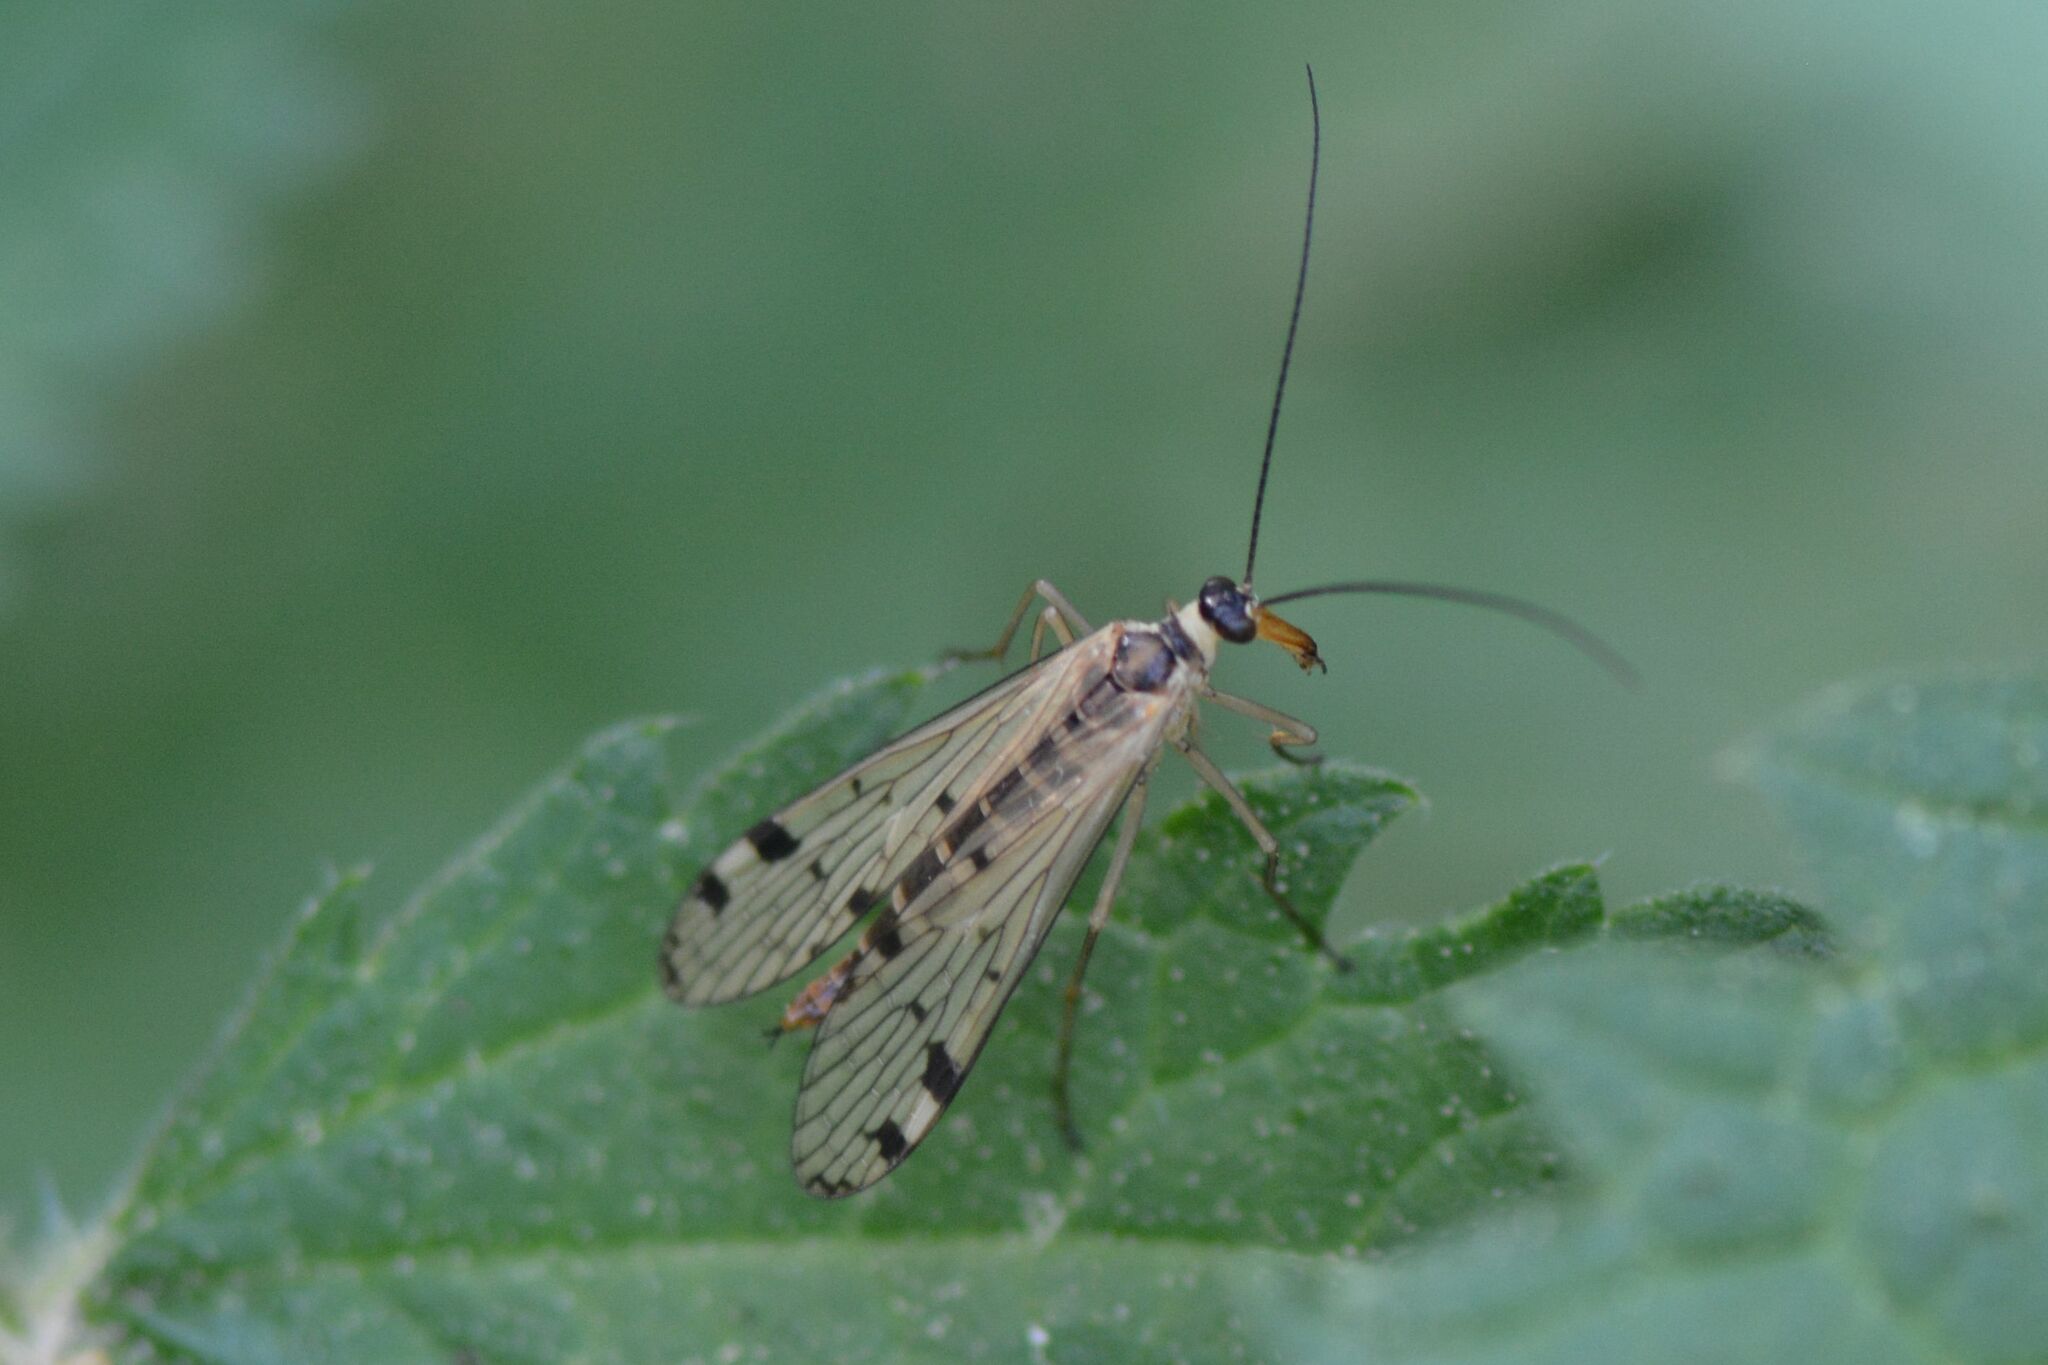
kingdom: Animalia
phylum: Arthropoda
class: Insecta
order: Mecoptera
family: Panorpidae
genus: Panorpa
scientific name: Panorpa alpina
